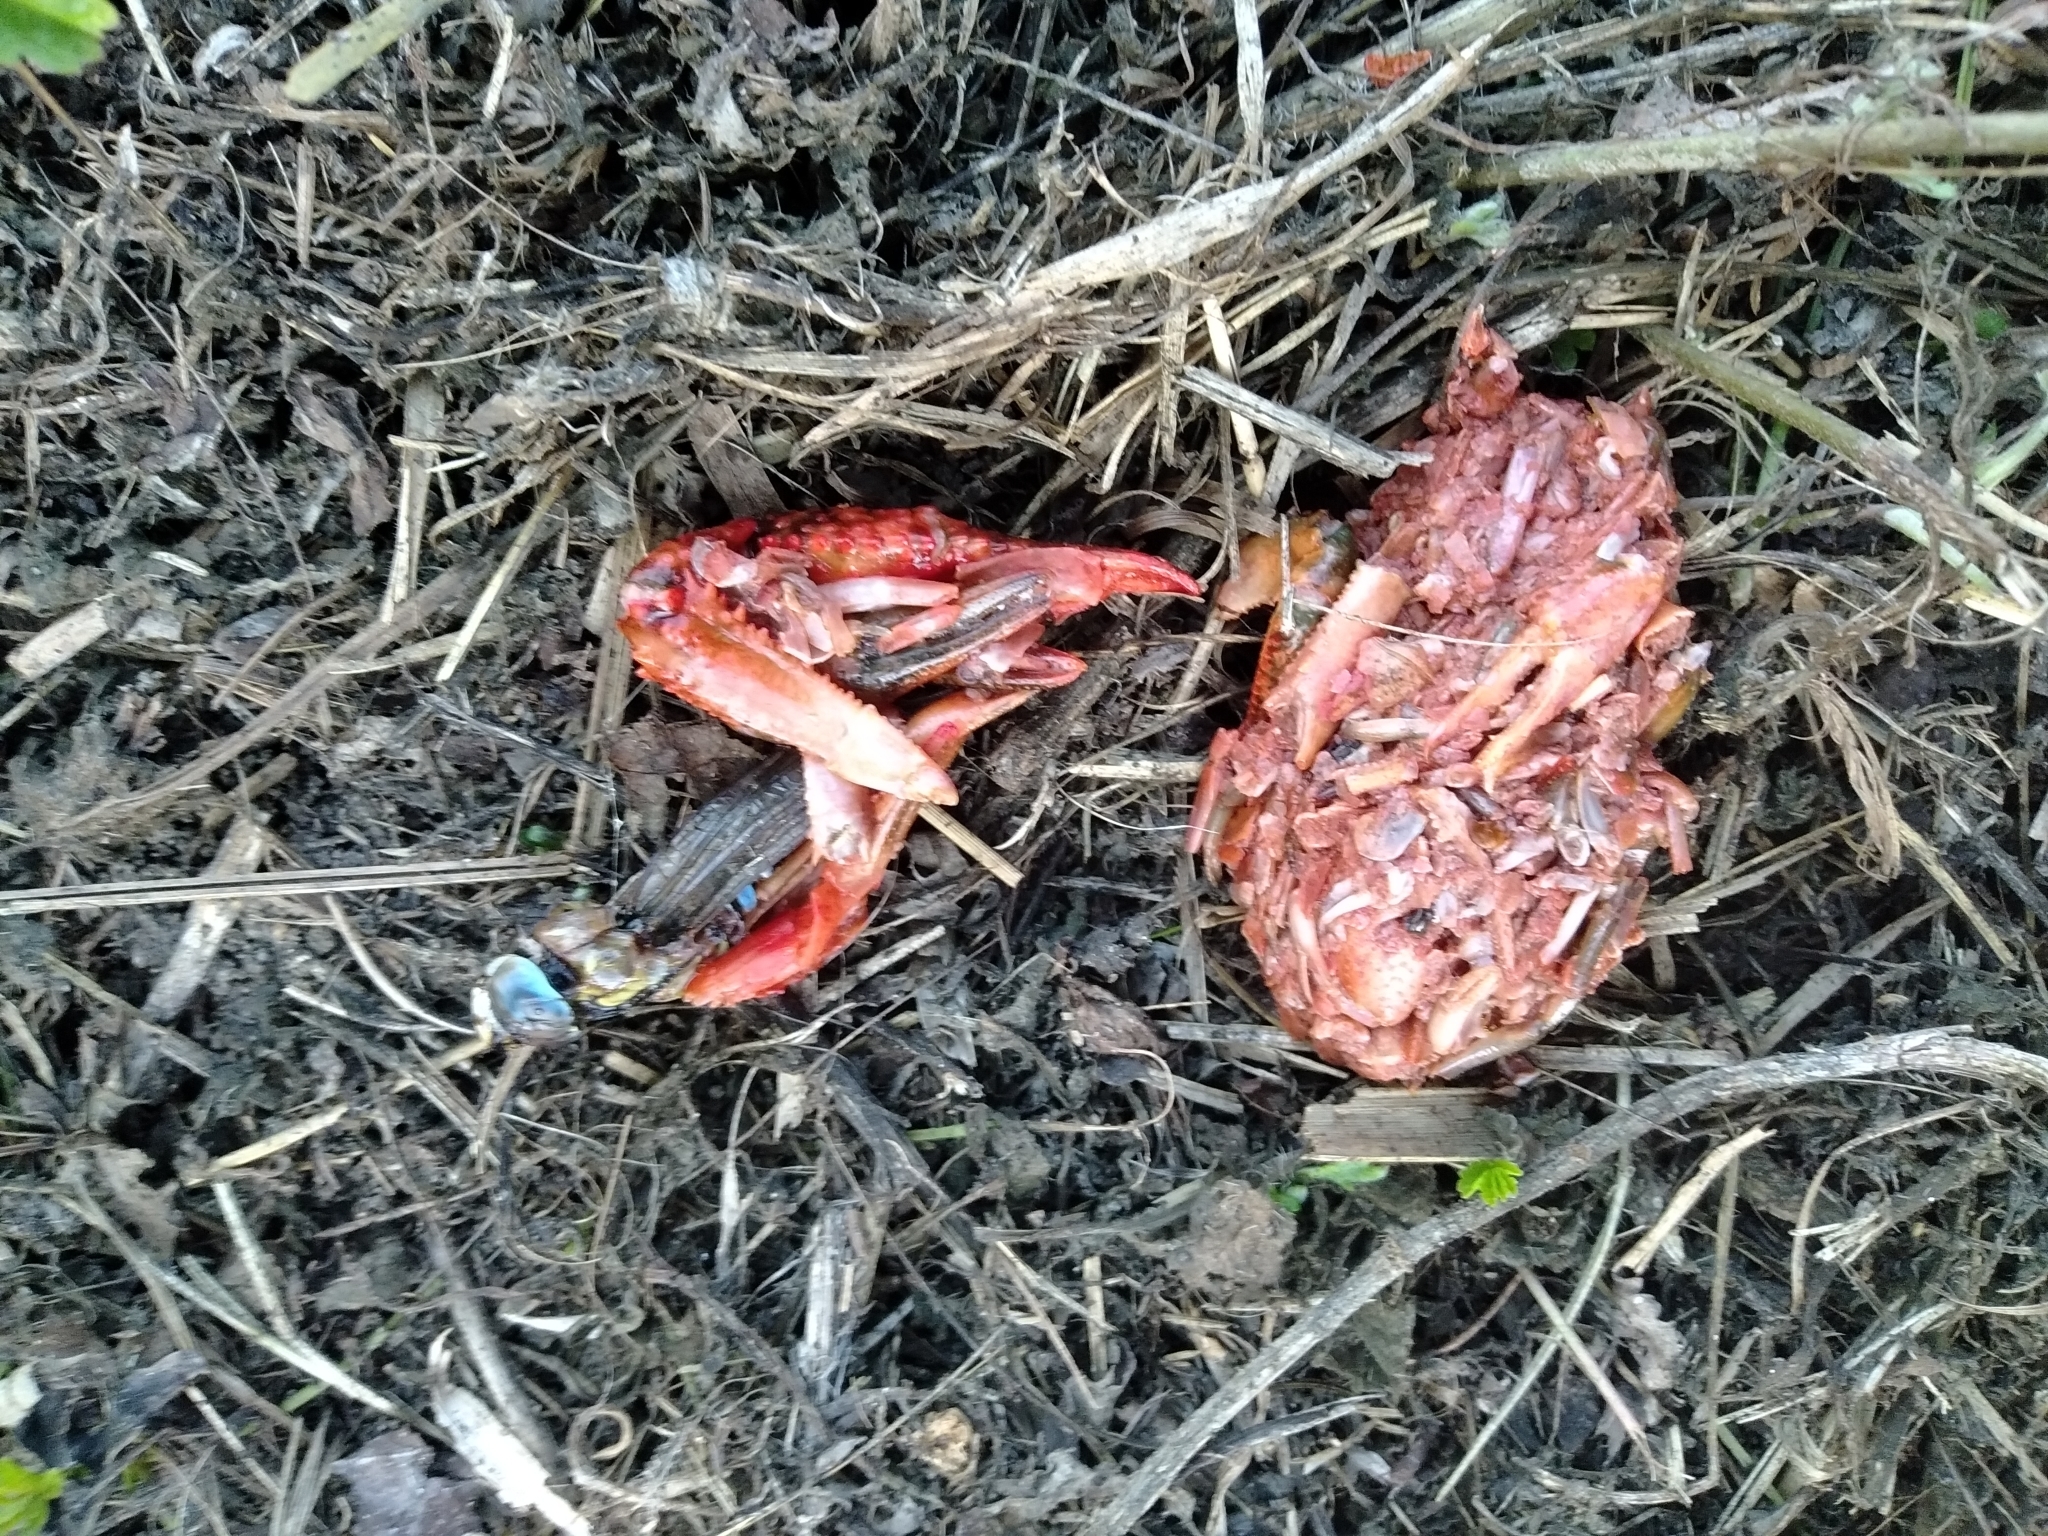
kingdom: Animalia
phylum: Arthropoda
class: Malacostraca
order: Decapoda
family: Cambaridae
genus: Procambarus
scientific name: Procambarus clarkii
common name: Red swamp crayfish
